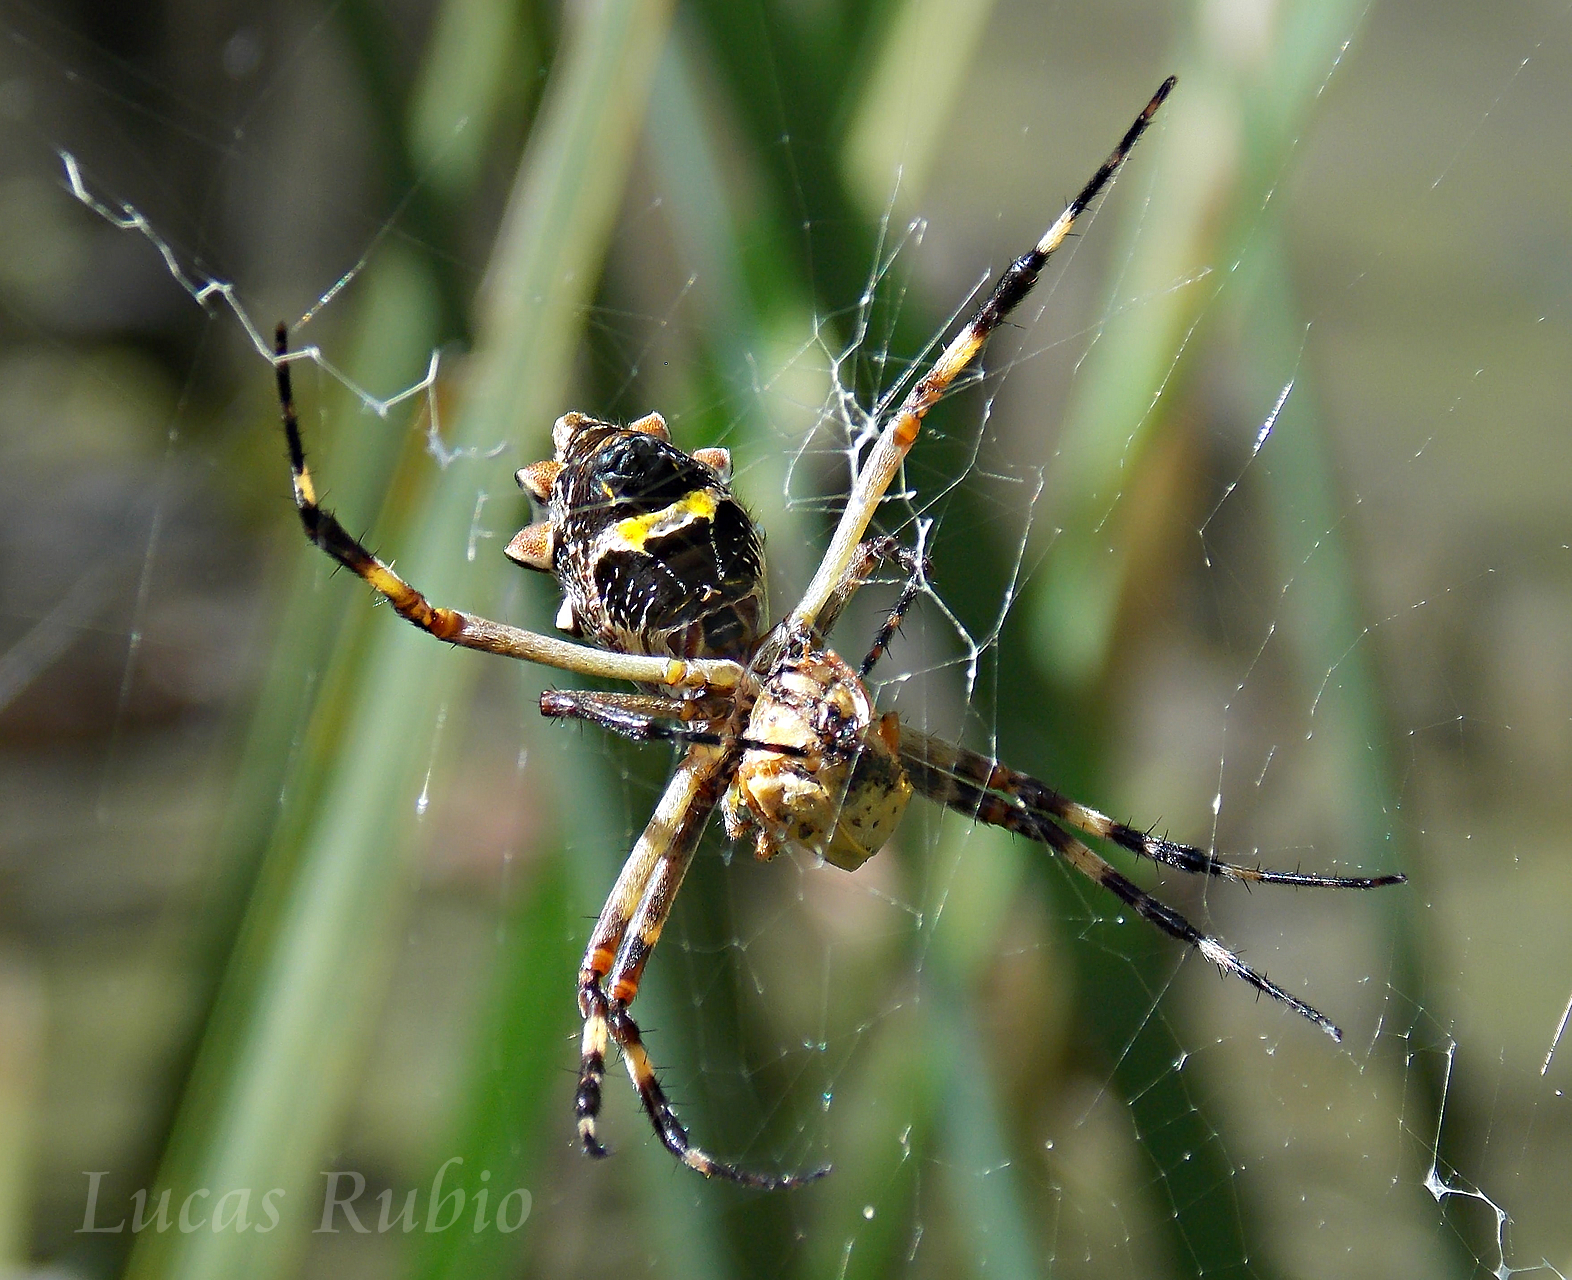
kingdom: Animalia
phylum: Arthropoda
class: Arachnida
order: Araneae
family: Araneidae
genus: Argiope
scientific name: Argiope argentata
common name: Orb weavers
